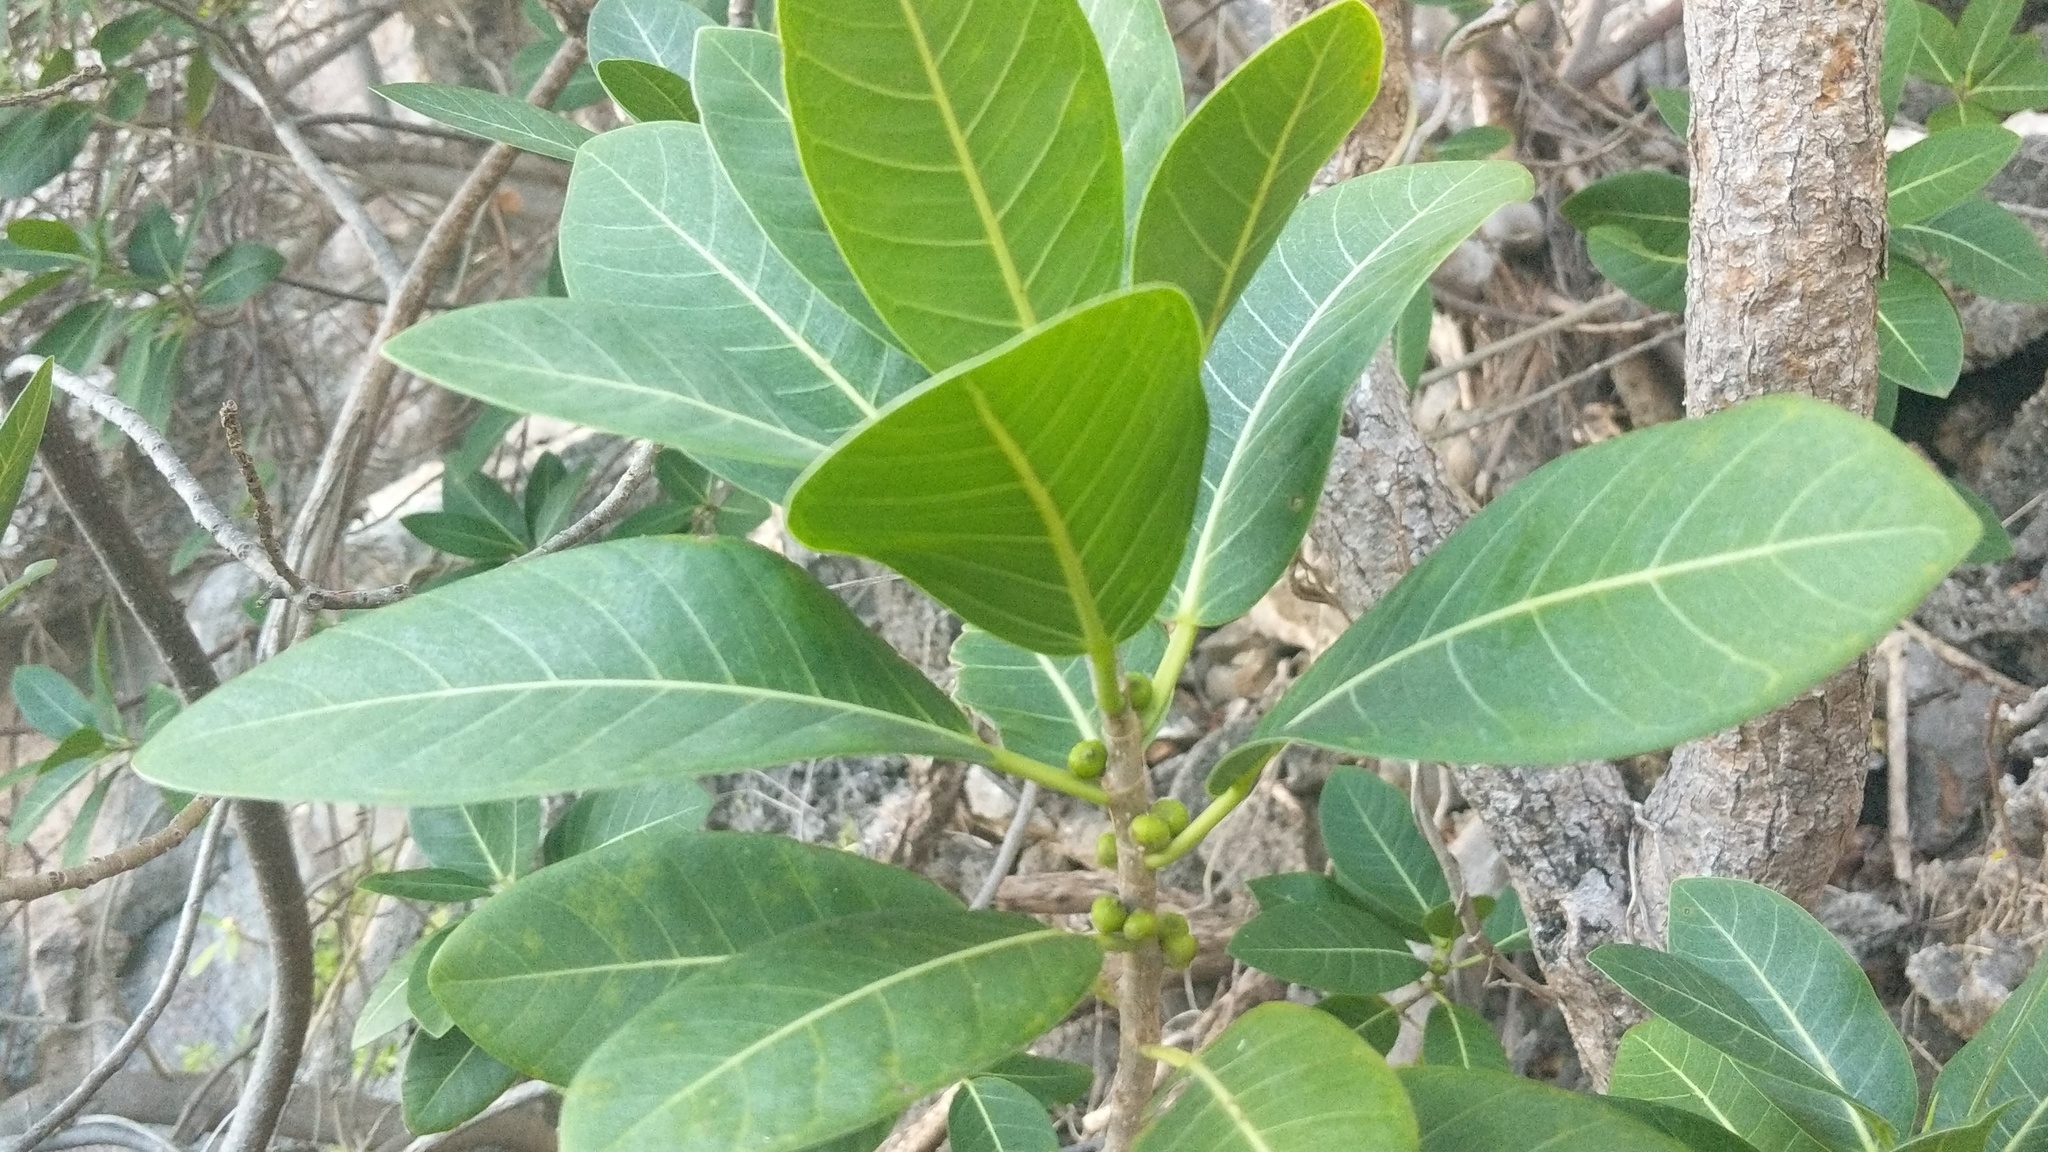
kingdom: Plantae
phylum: Tracheophyta
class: Magnoliopsida
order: Rosales
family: Moraceae
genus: Ficus
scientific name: Ficus aurea
